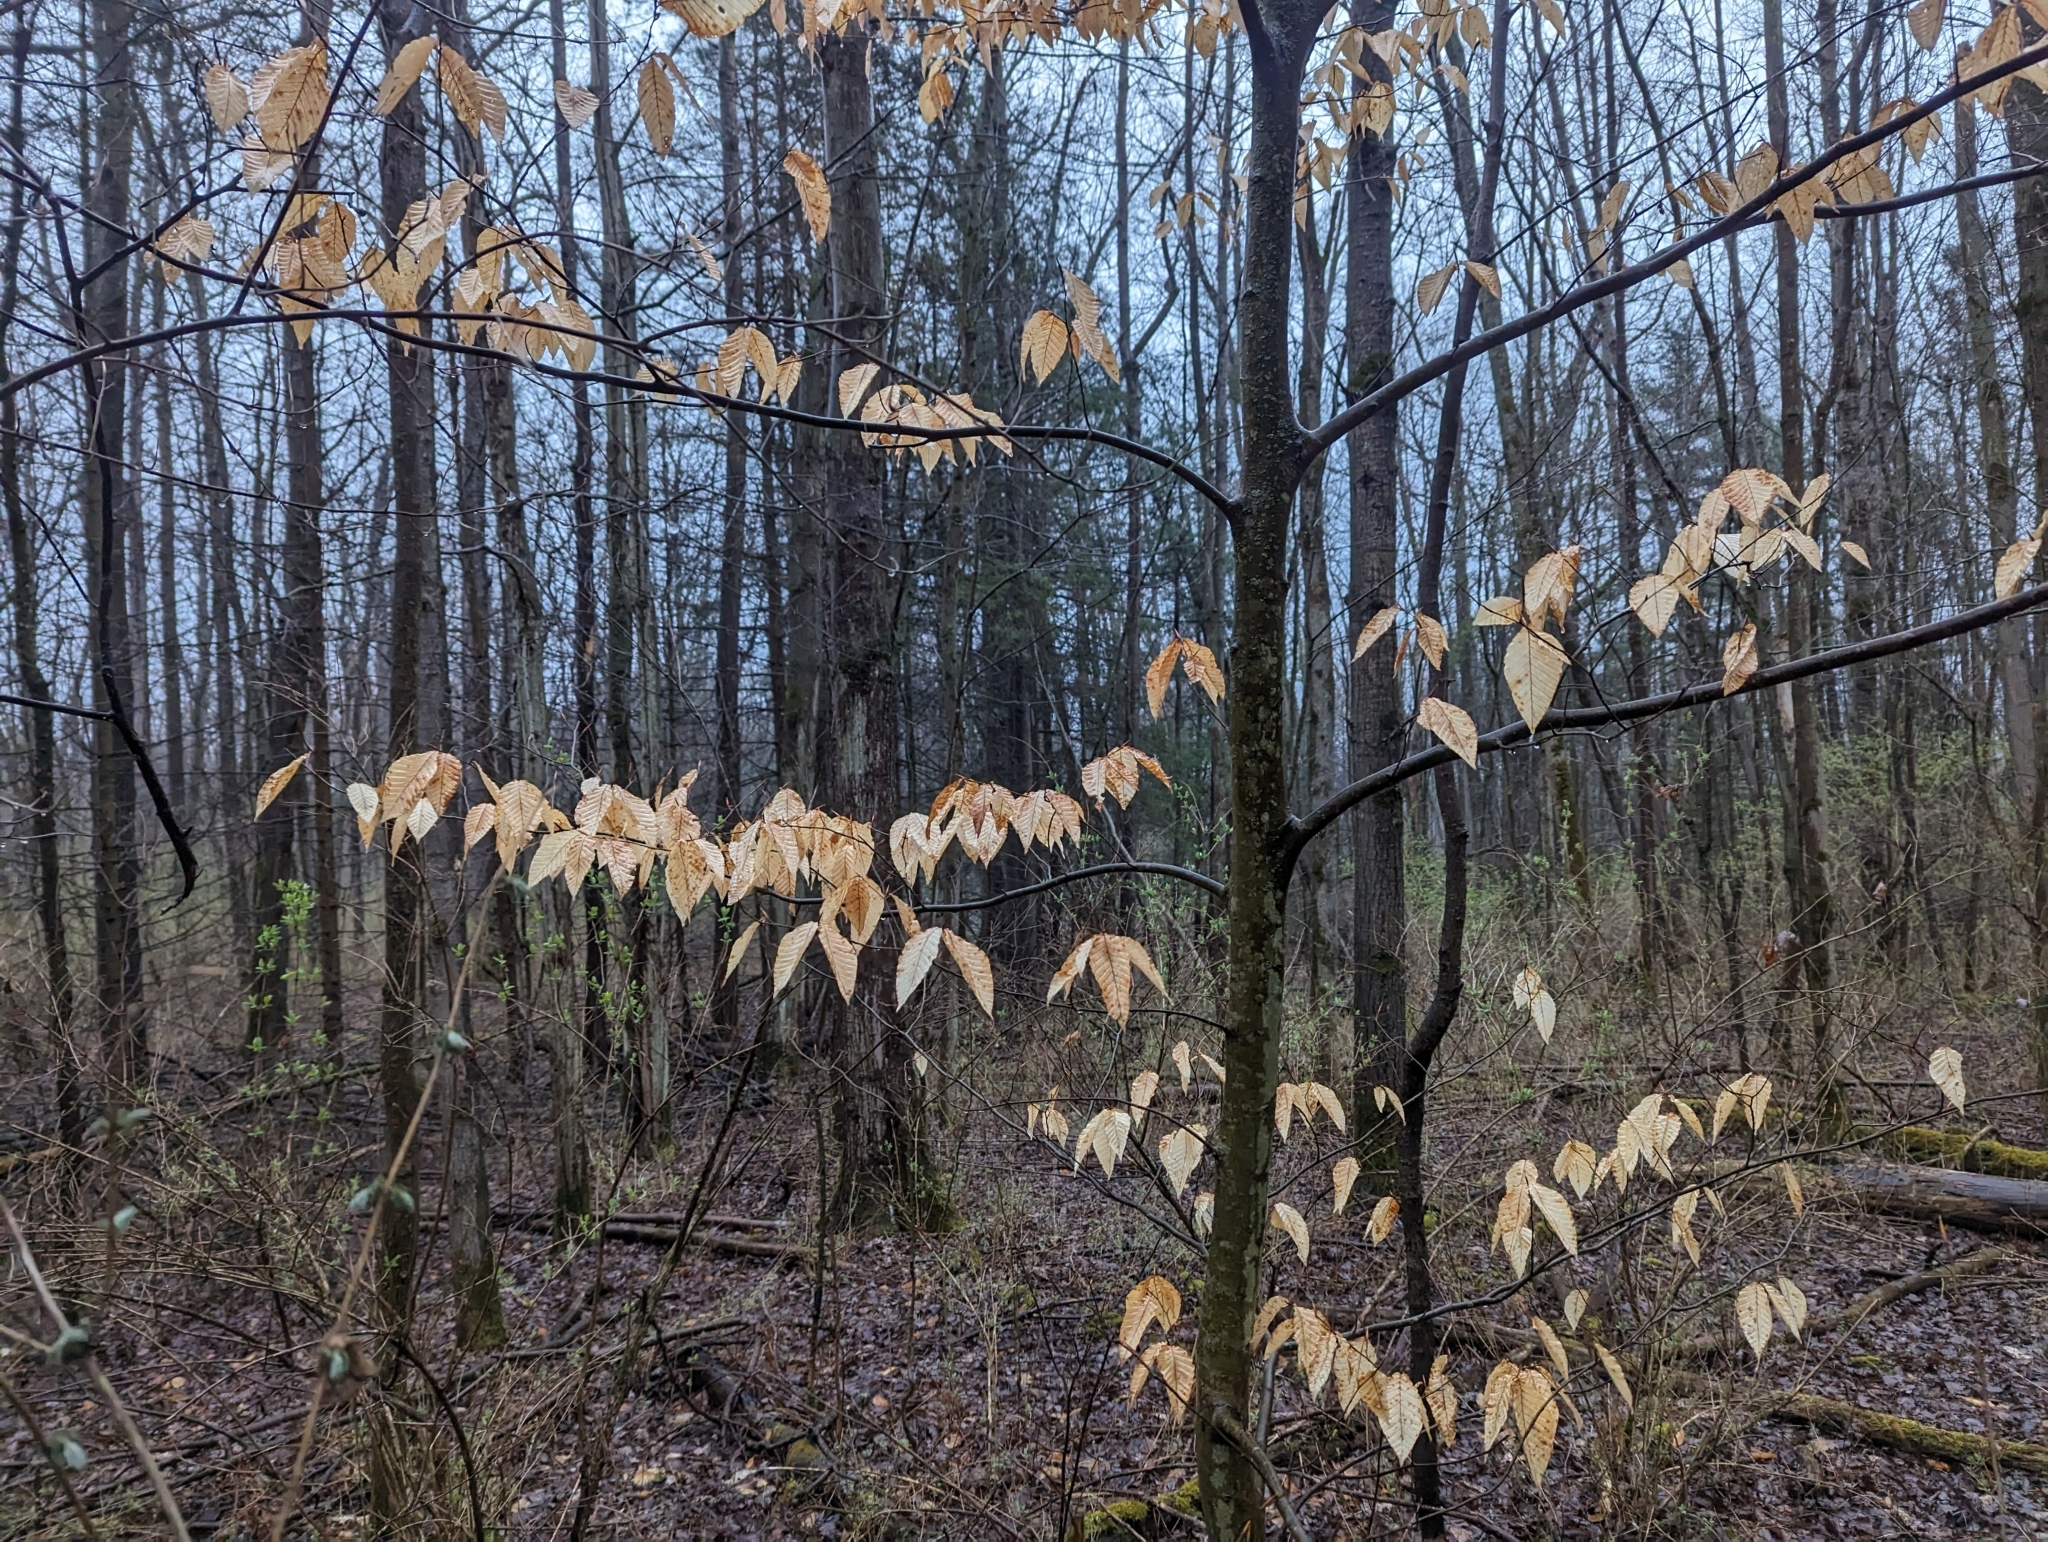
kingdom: Plantae
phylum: Tracheophyta
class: Magnoliopsida
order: Fagales
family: Fagaceae
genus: Fagus
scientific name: Fagus grandifolia
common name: American beech
